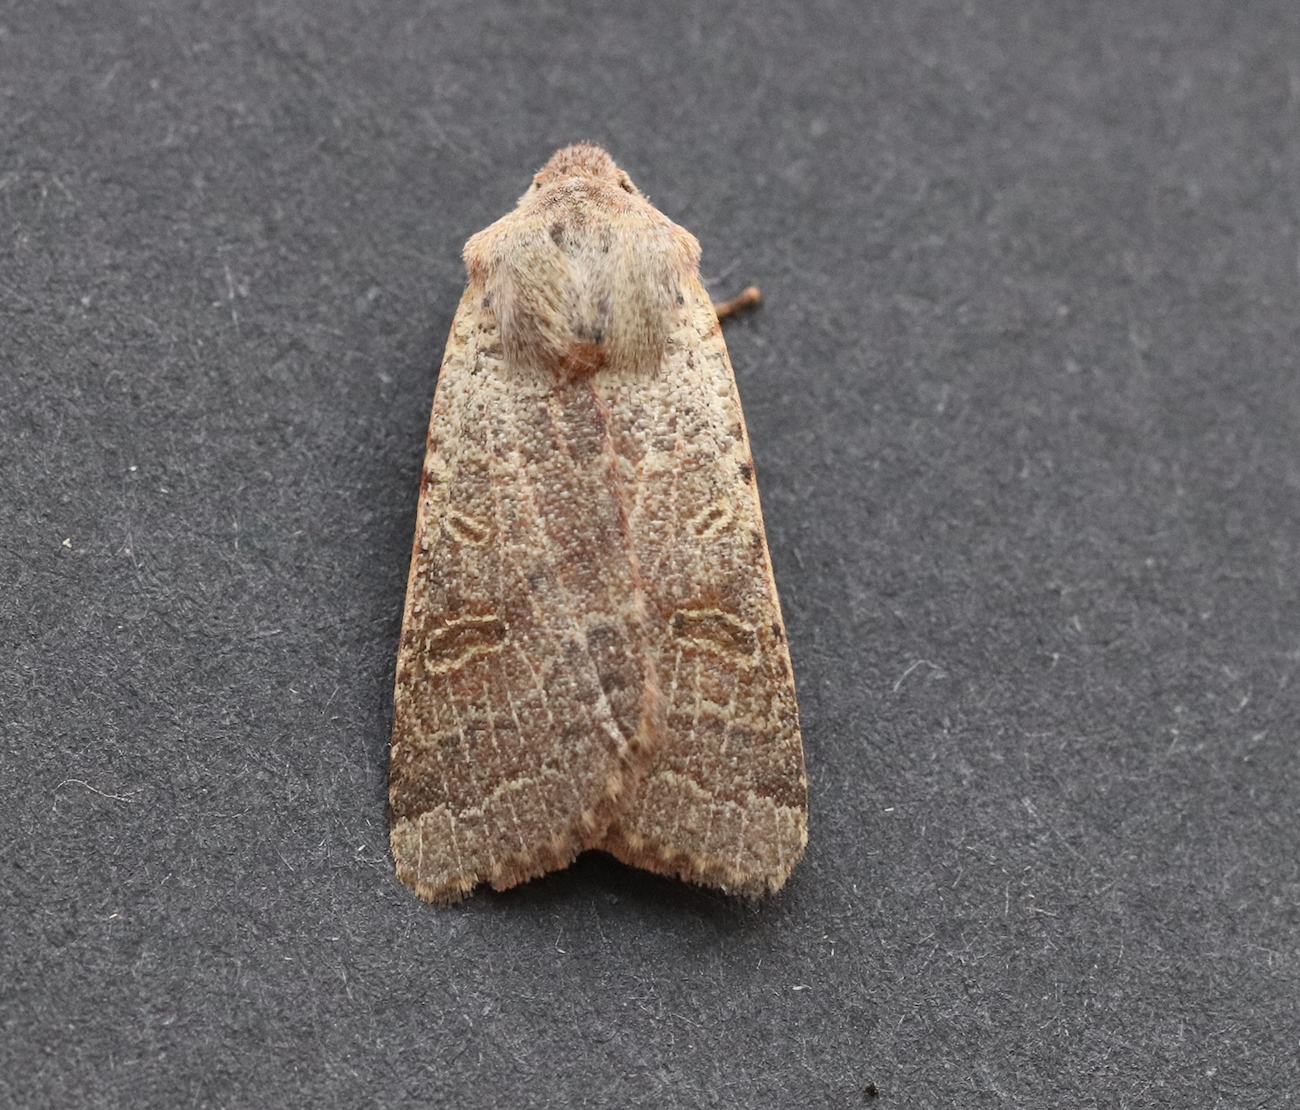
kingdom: Animalia
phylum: Arthropoda
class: Insecta
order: Lepidoptera
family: Noctuidae
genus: Agrochola
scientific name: Agrochola lychnidis
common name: Beaded chestnut
